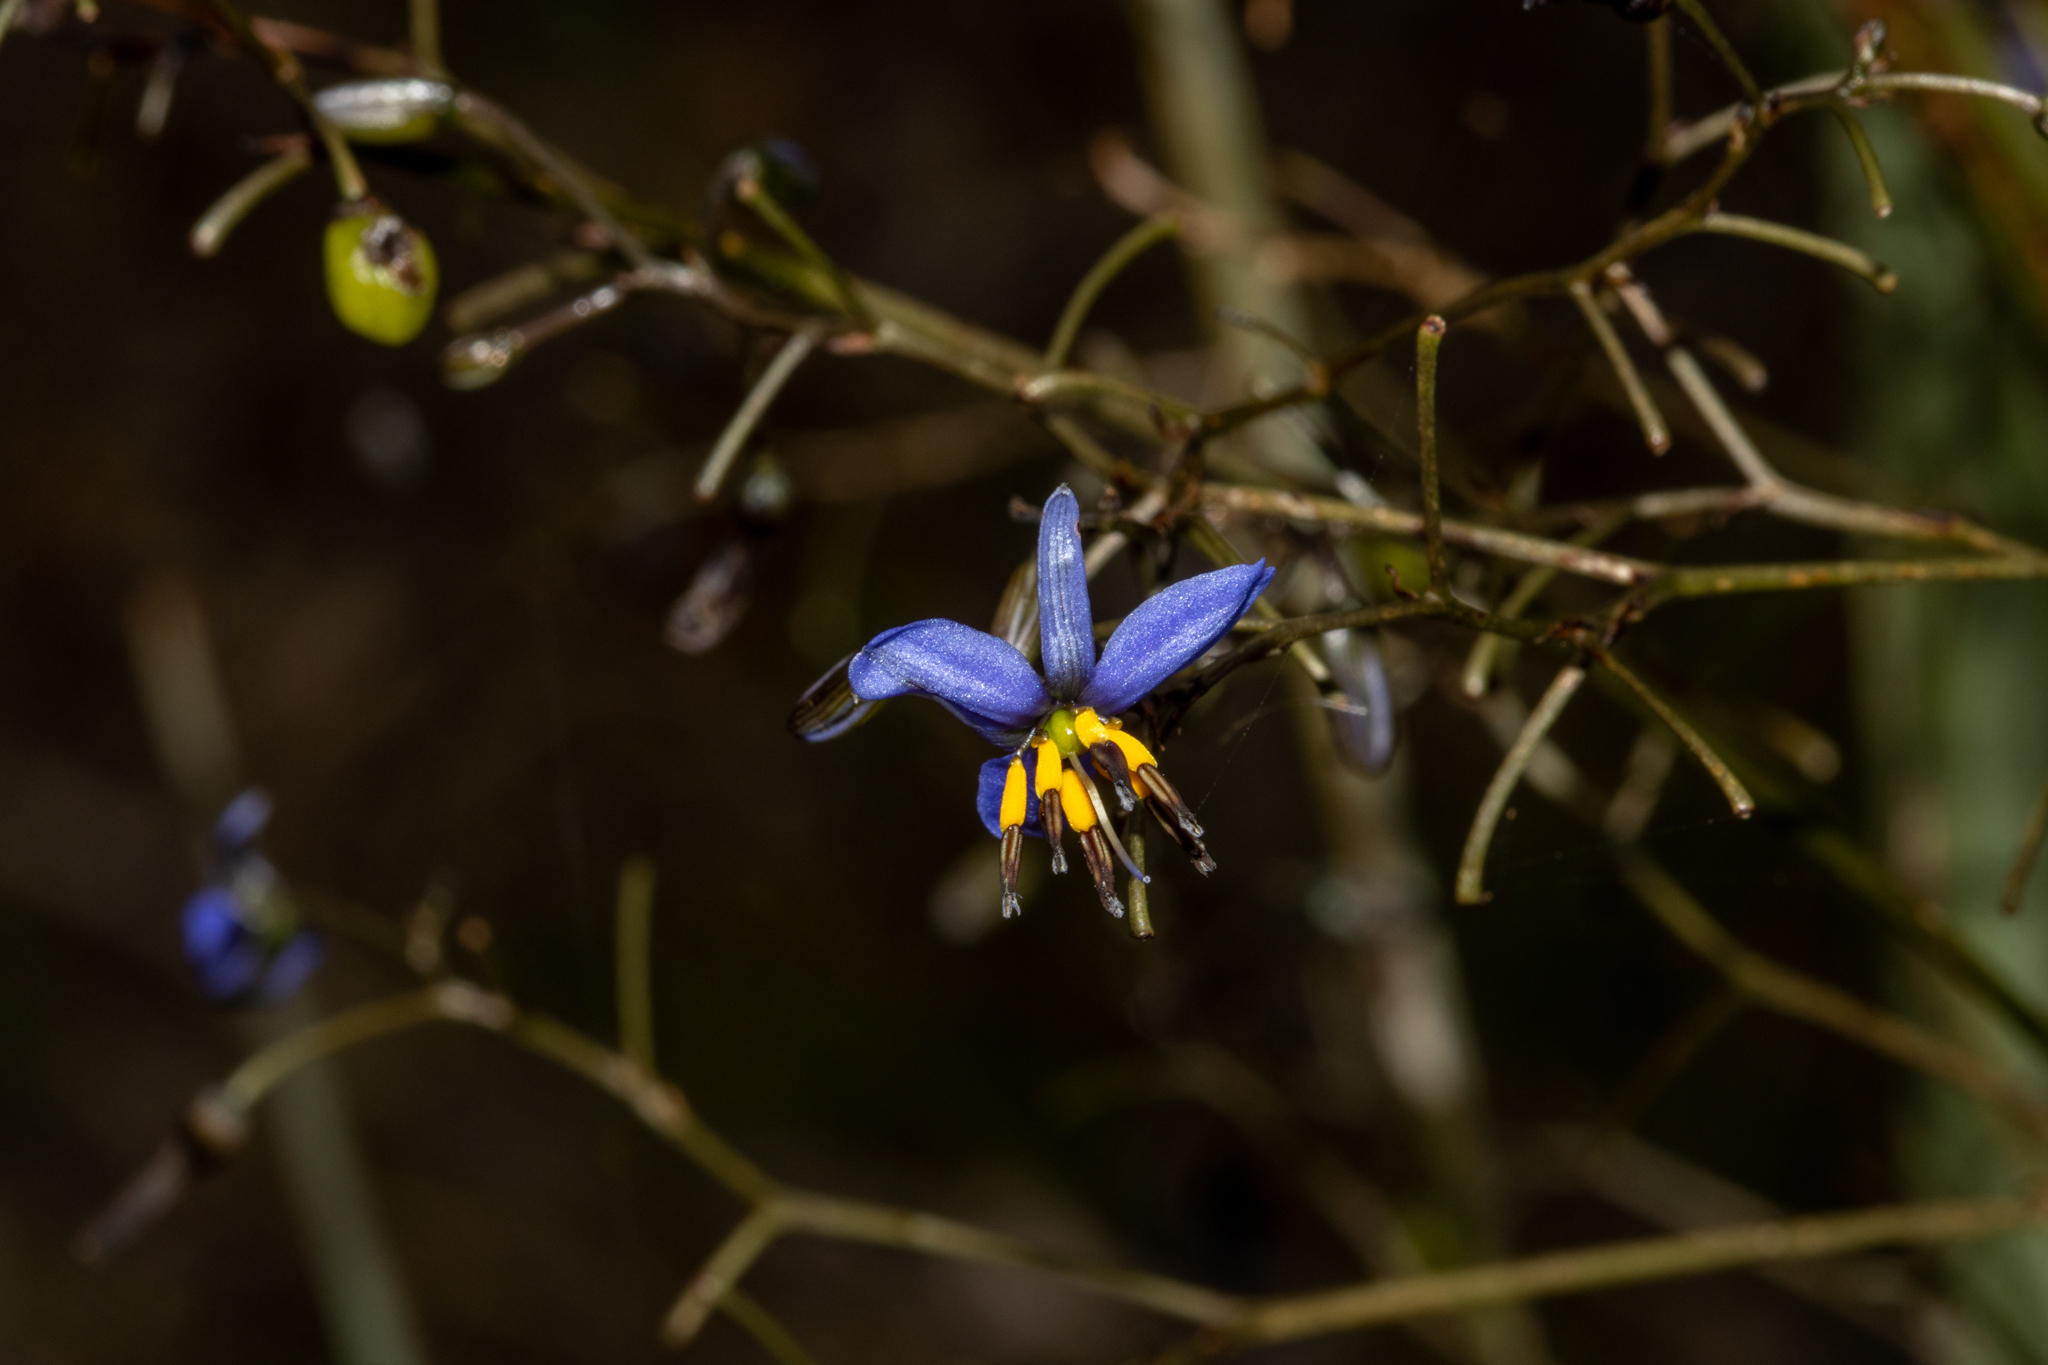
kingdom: Plantae
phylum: Tracheophyta
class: Liliopsida
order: Asparagales
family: Asphodelaceae
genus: Dianella
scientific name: Dianella revoluta
